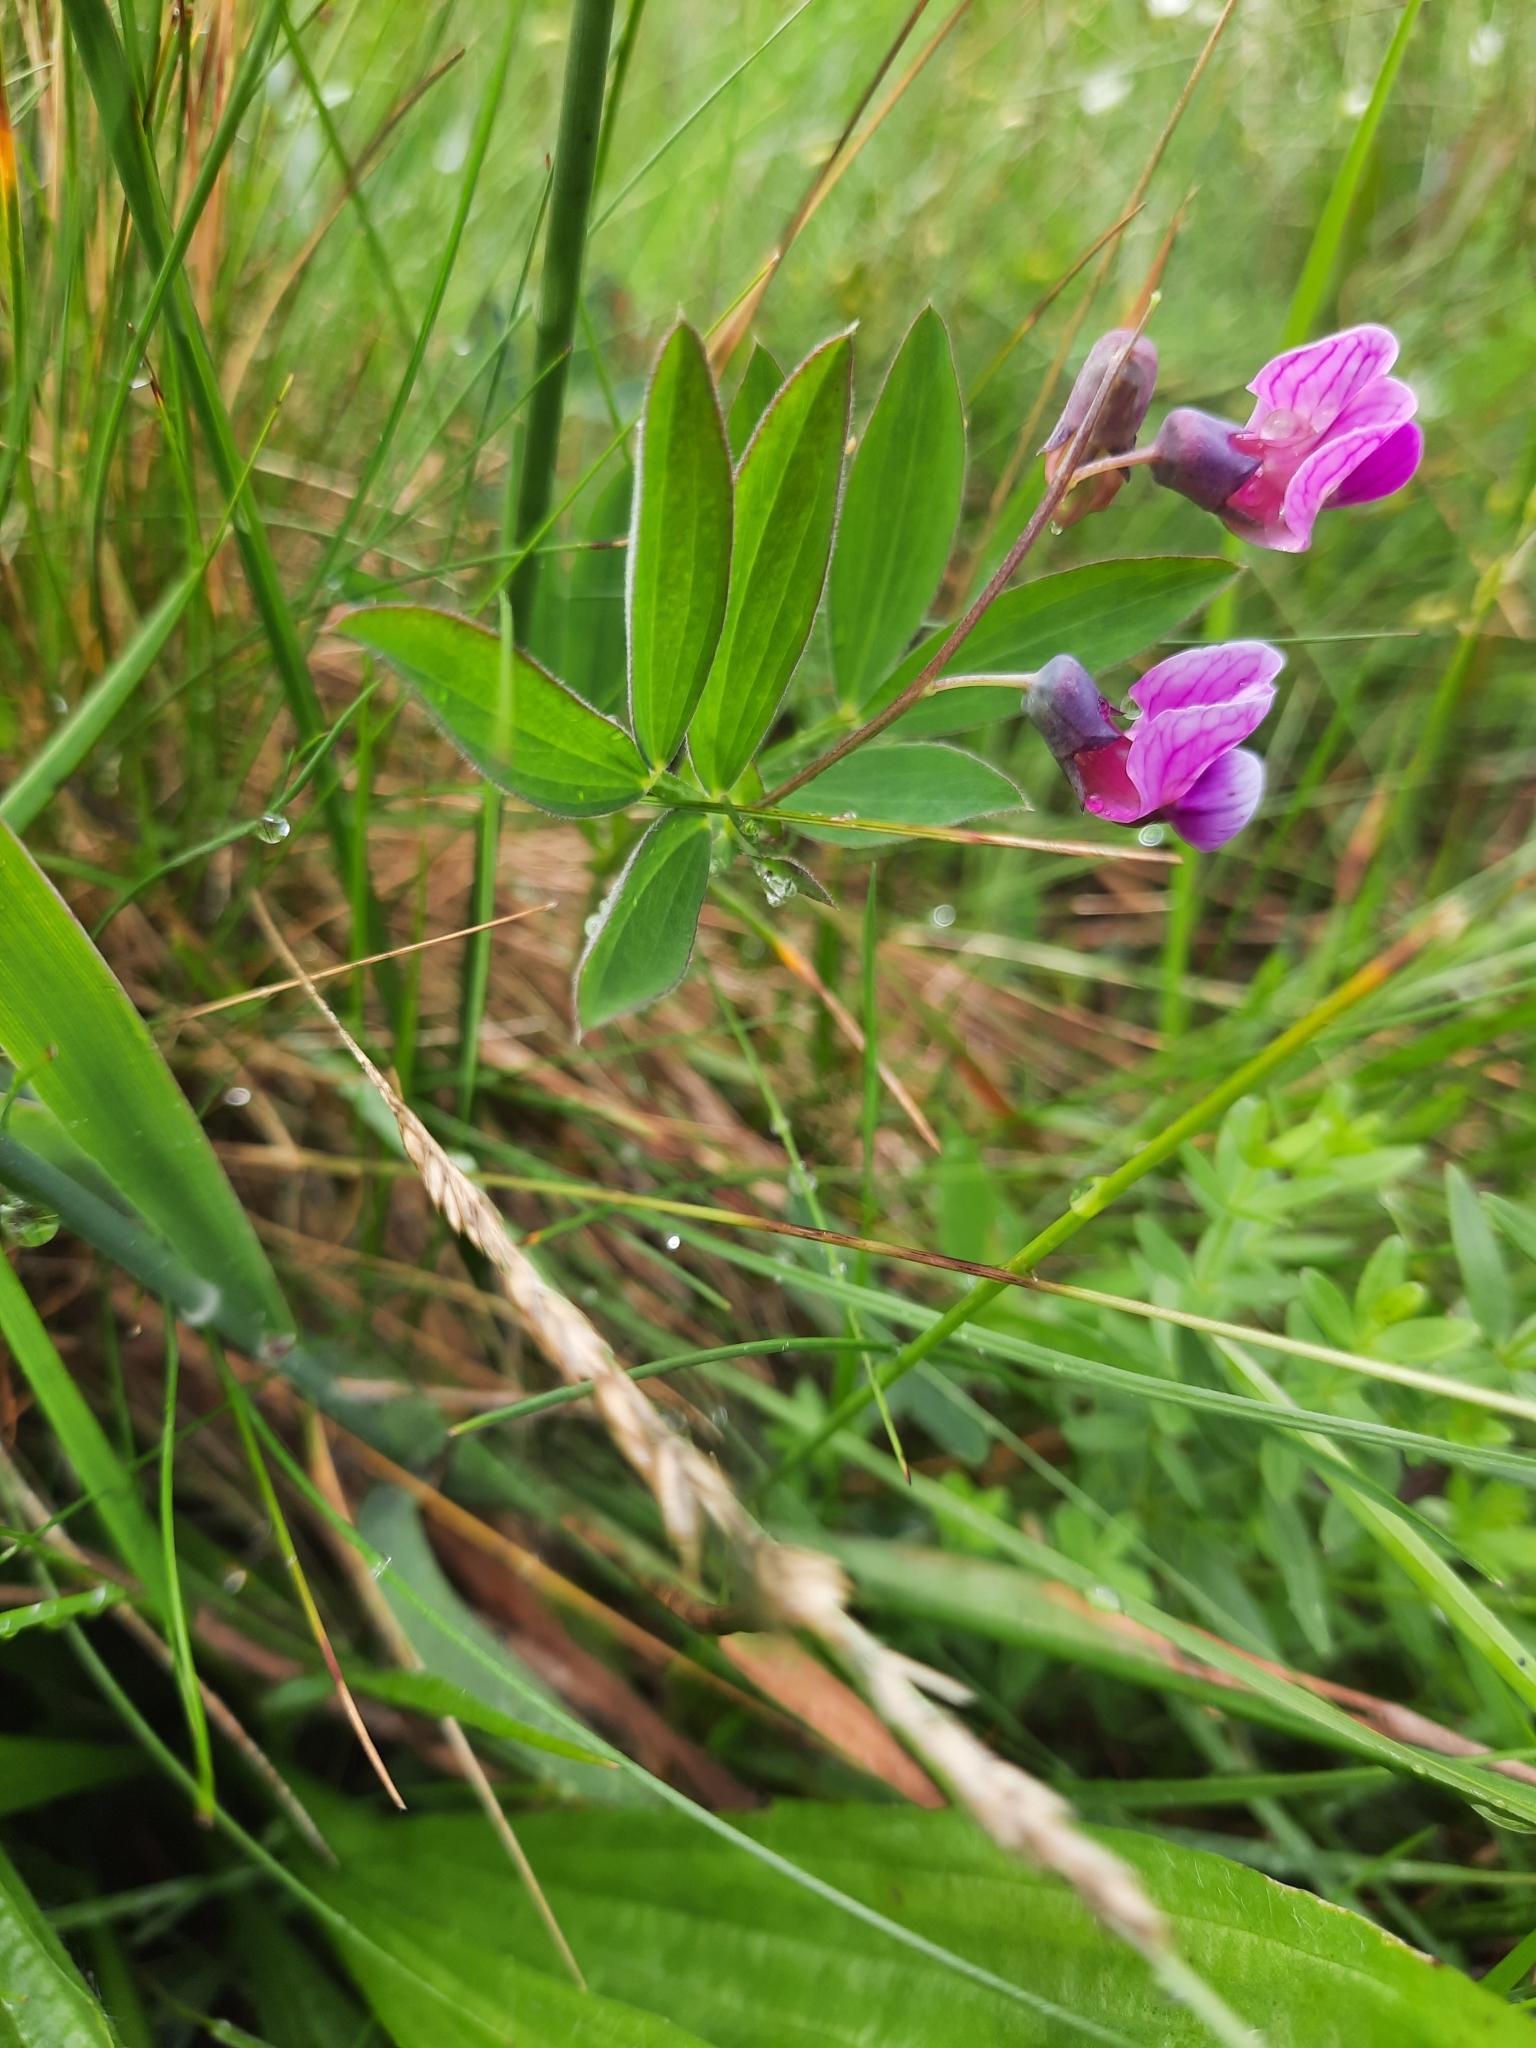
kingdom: Plantae
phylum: Tracheophyta
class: Magnoliopsida
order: Fabales
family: Fabaceae
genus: Lathyrus
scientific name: Lathyrus linifolius
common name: Bitter-vetch
